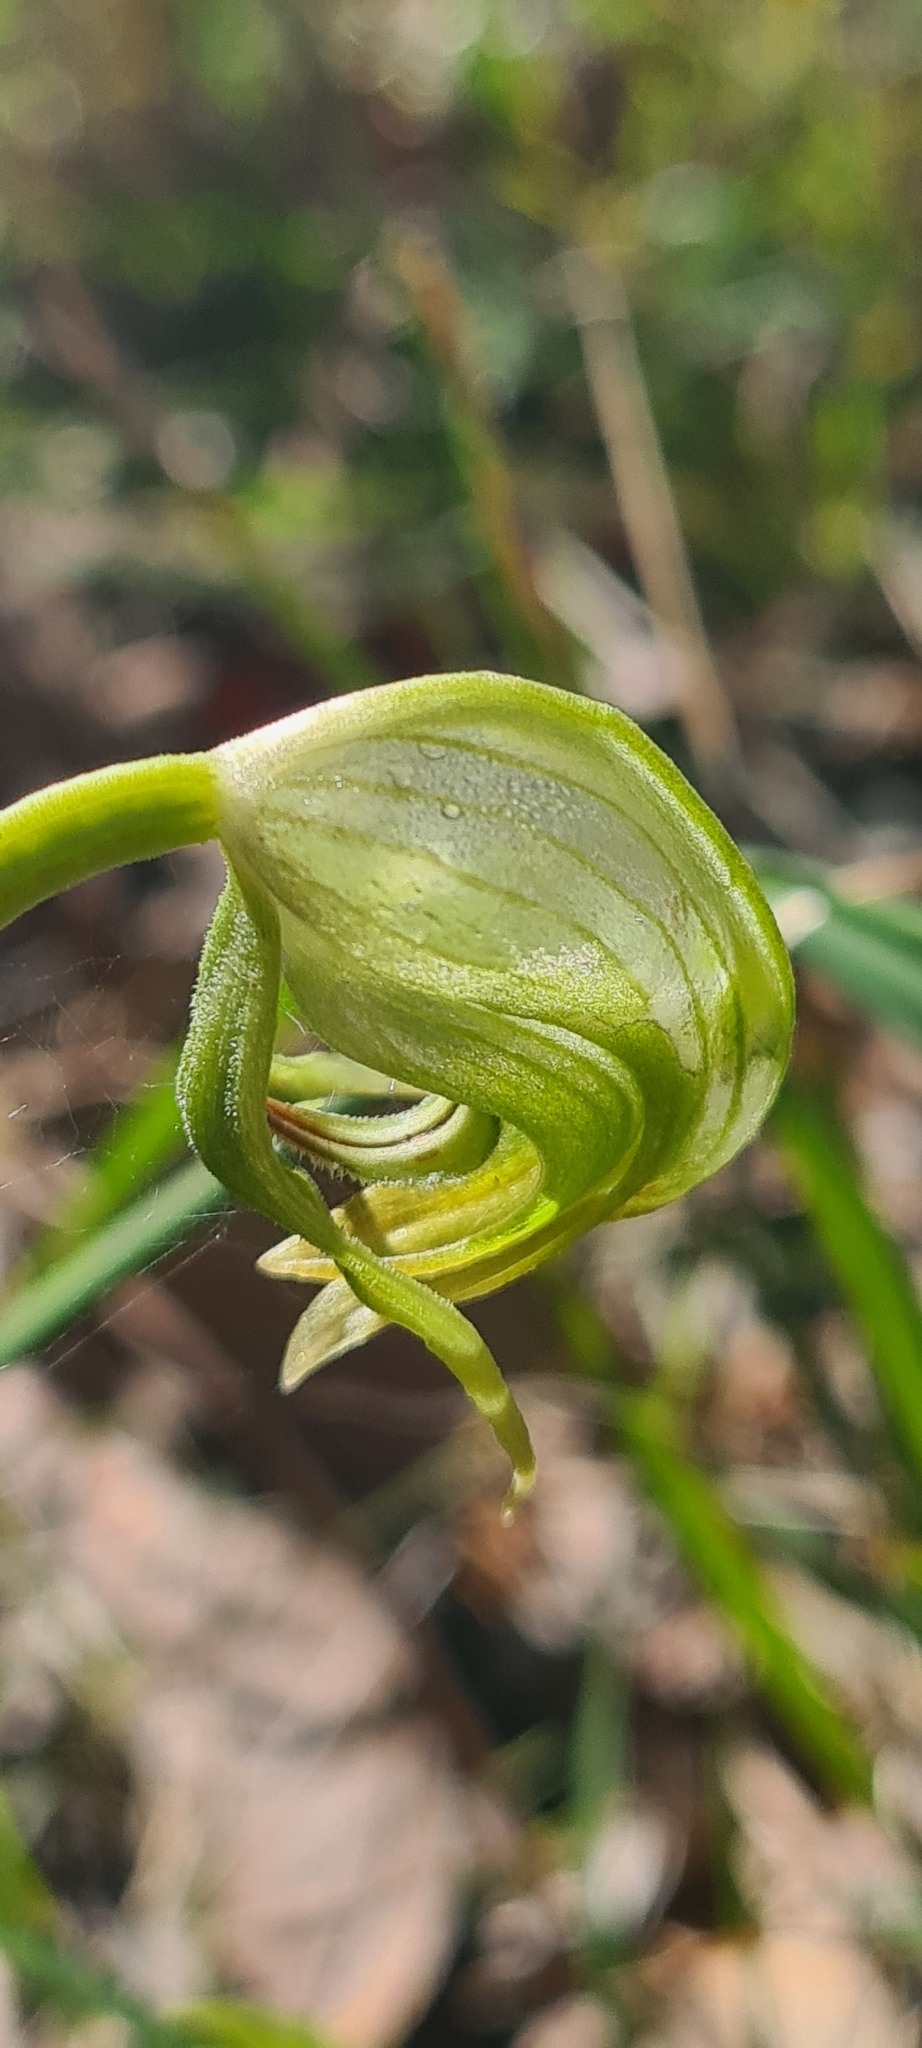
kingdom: Plantae
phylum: Tracheophyta
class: Liliopsida
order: Asparagales
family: Orchidaceae
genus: Pterostylis
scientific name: Pterostylis nutans
